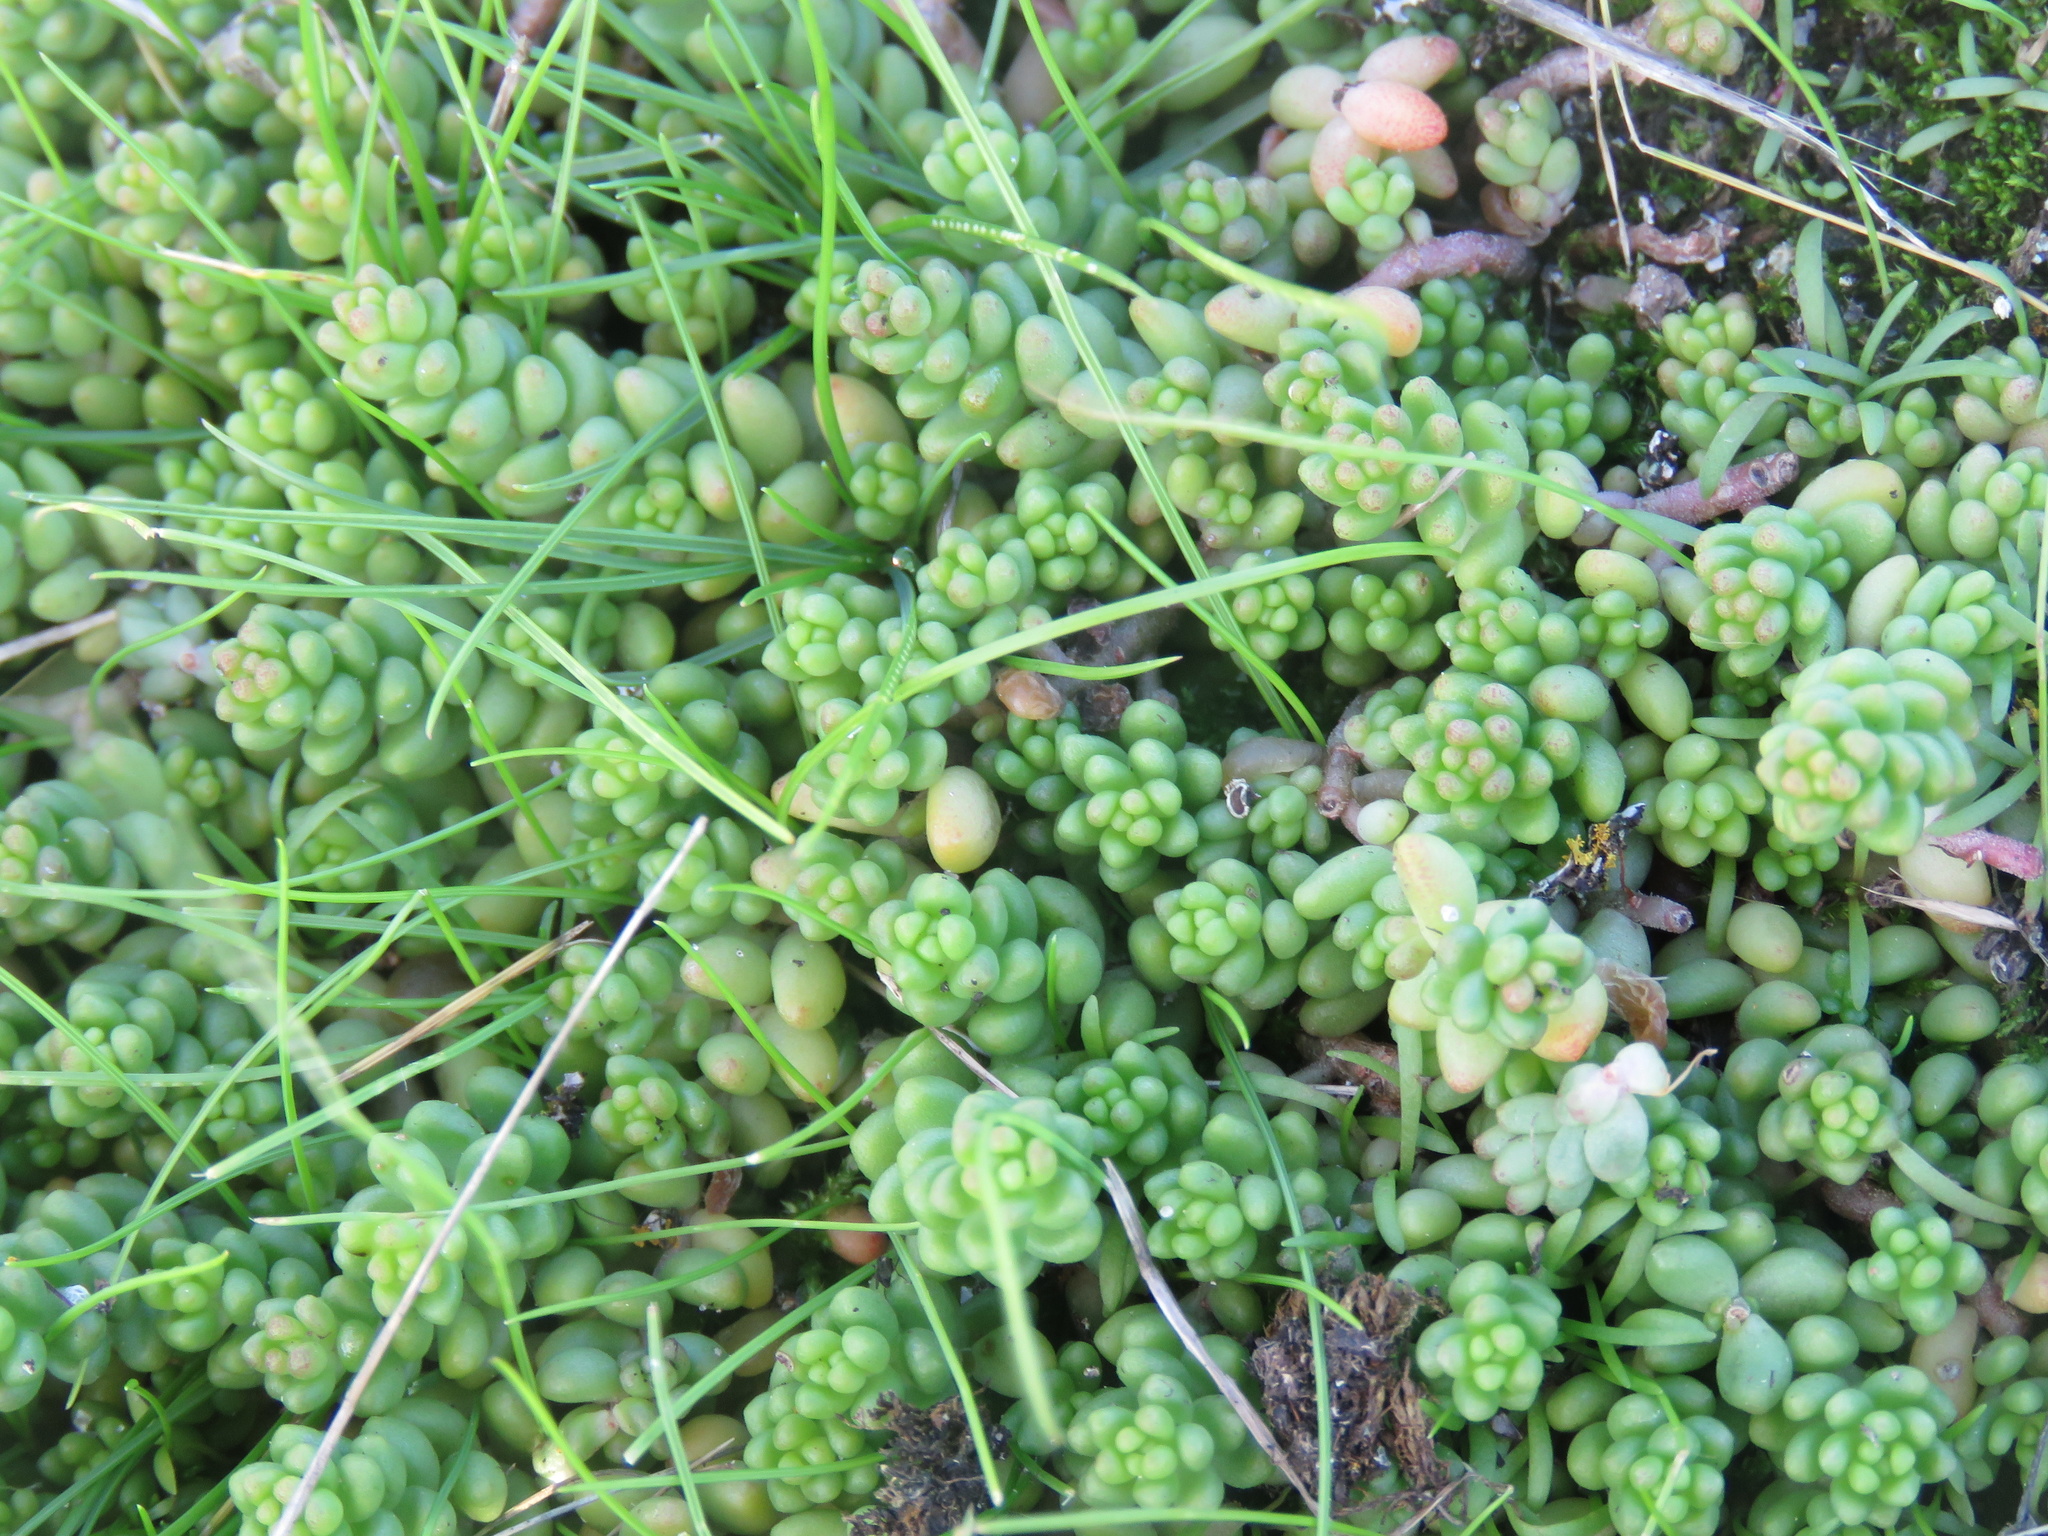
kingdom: Plantae
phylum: Tracheophyta
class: Magnoliopsida
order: Saxifragales
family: Crassulaceae
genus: Sedum
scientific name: Sedum album
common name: White stonecrop
